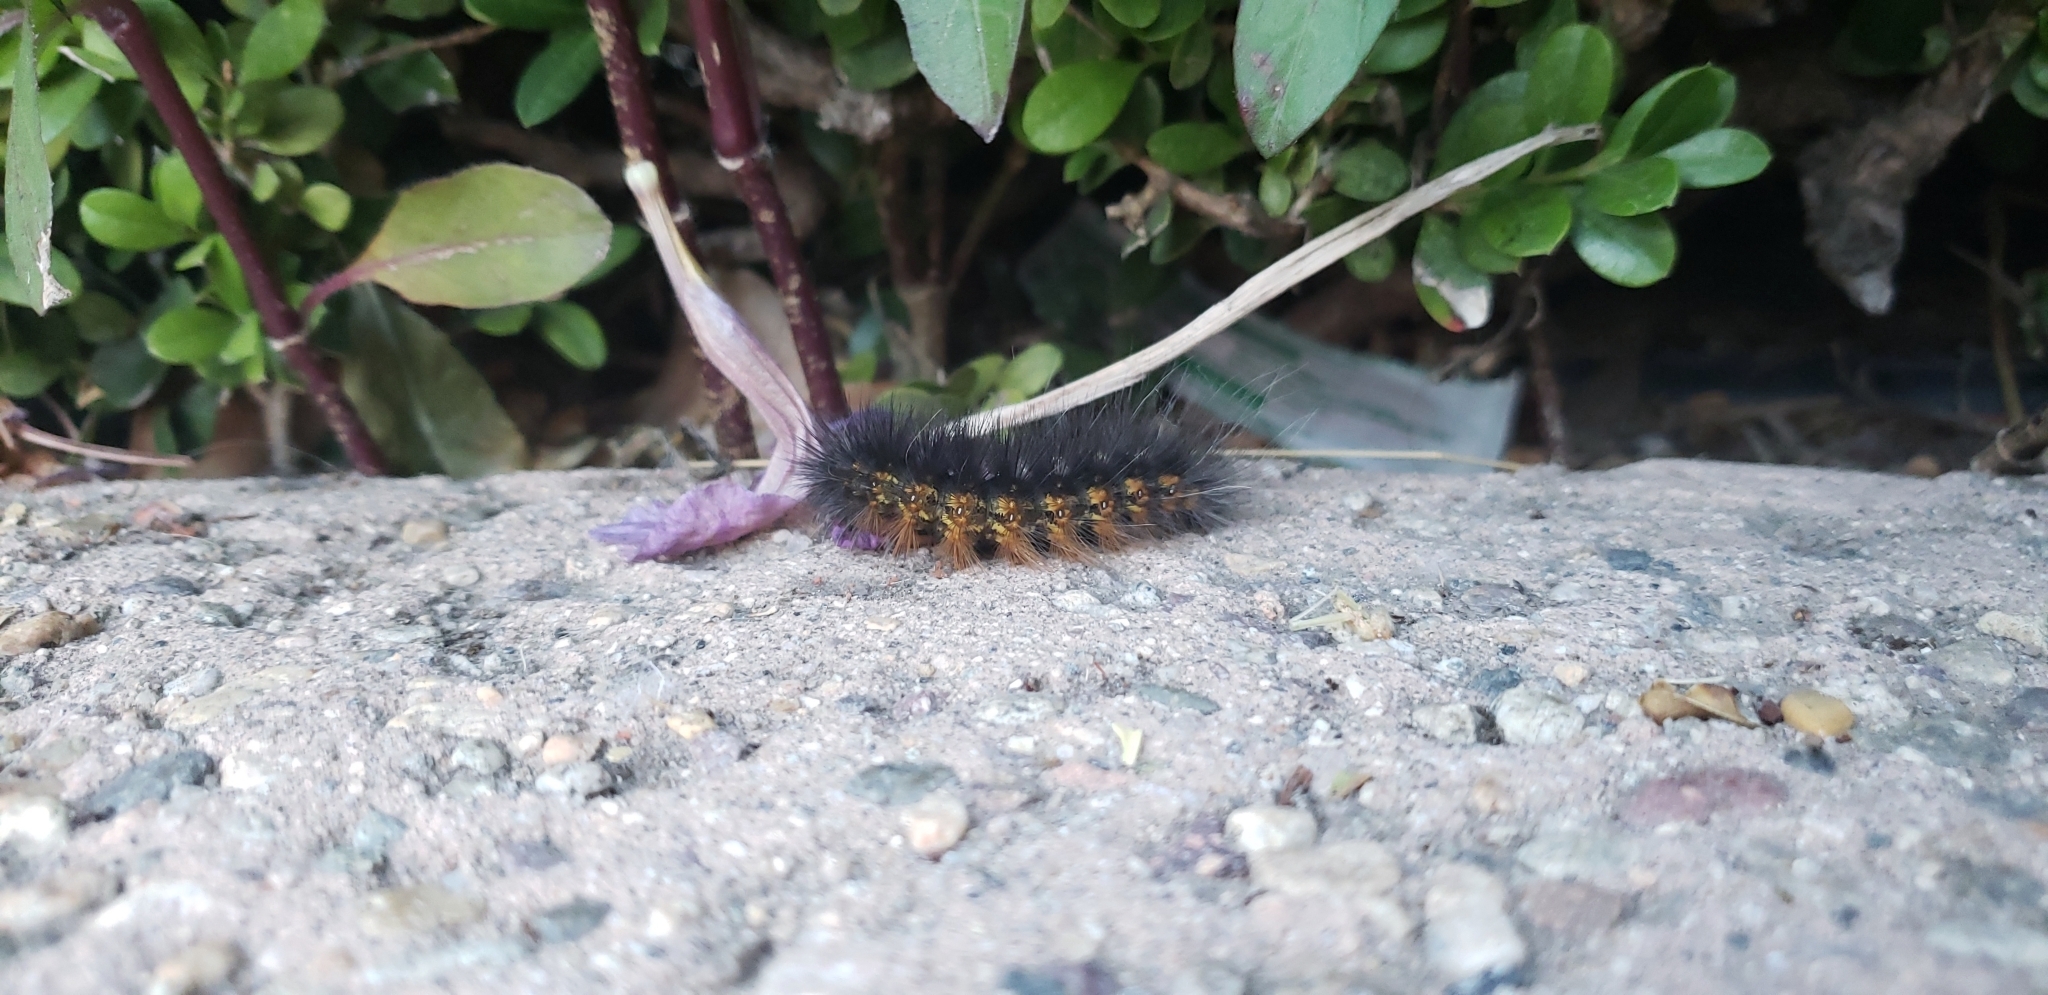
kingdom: Animalia
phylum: Arthropoda
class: Insecta
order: Lepidoptera
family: Erebidae
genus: Estigmene
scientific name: Estigmene acrea
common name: Salt marsh moth
